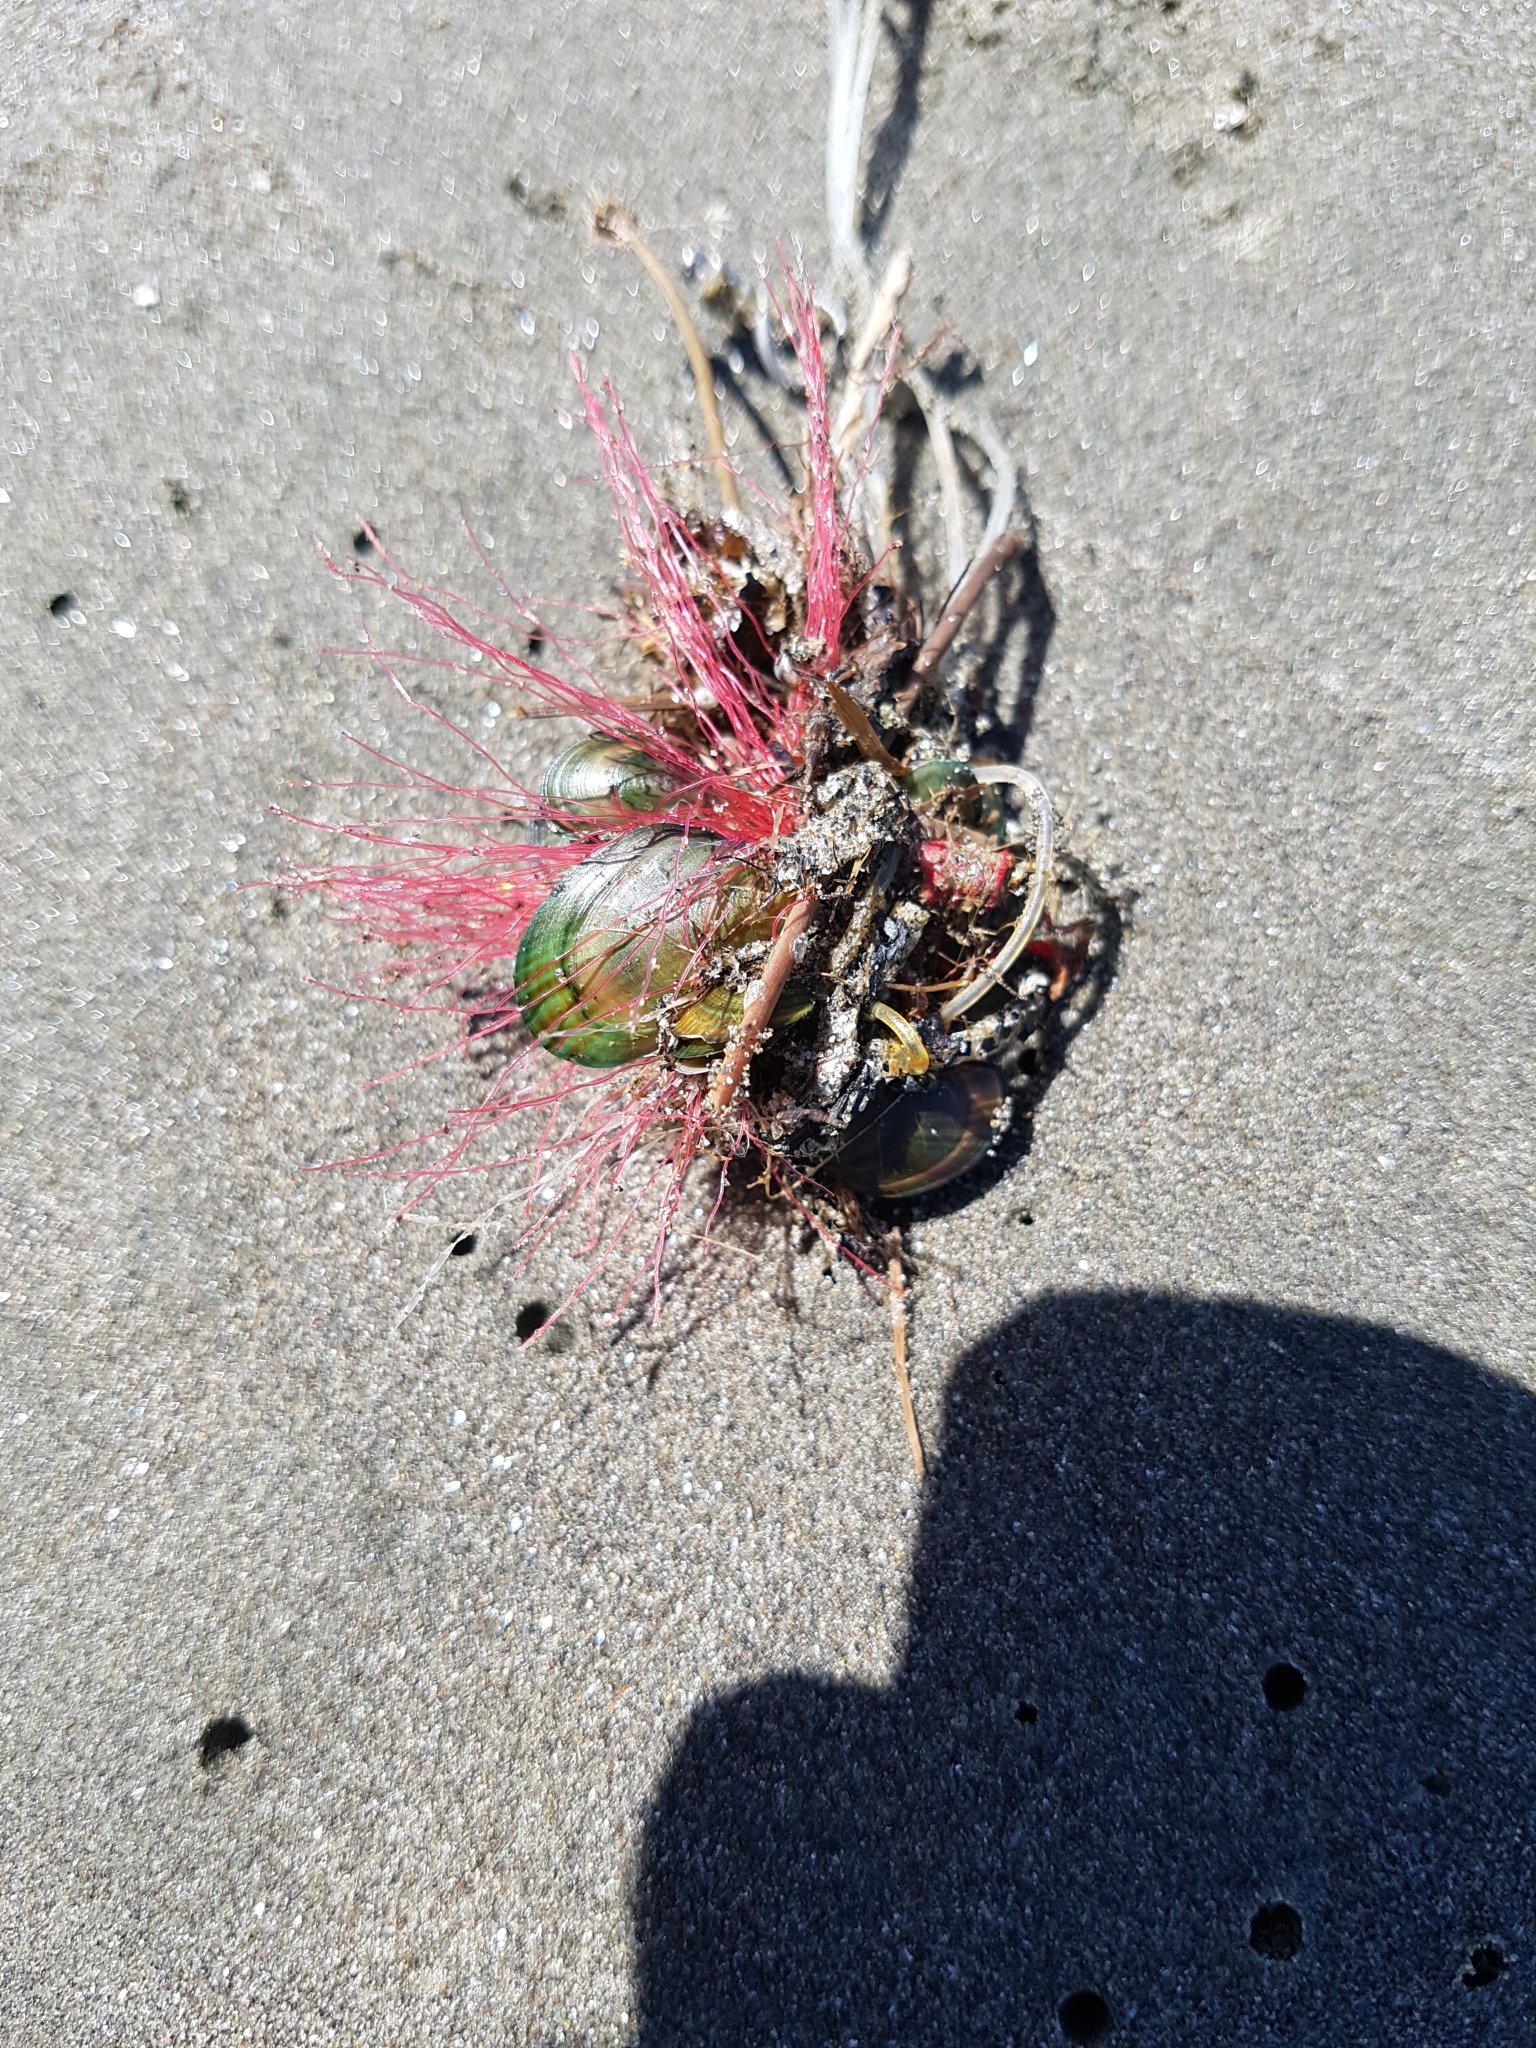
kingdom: Animalia
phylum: Mollusca
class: Bivalvia
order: Mytilida
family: Mytilidae
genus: Perna
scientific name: Perna canaliculus
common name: New zealand greenshelltm
